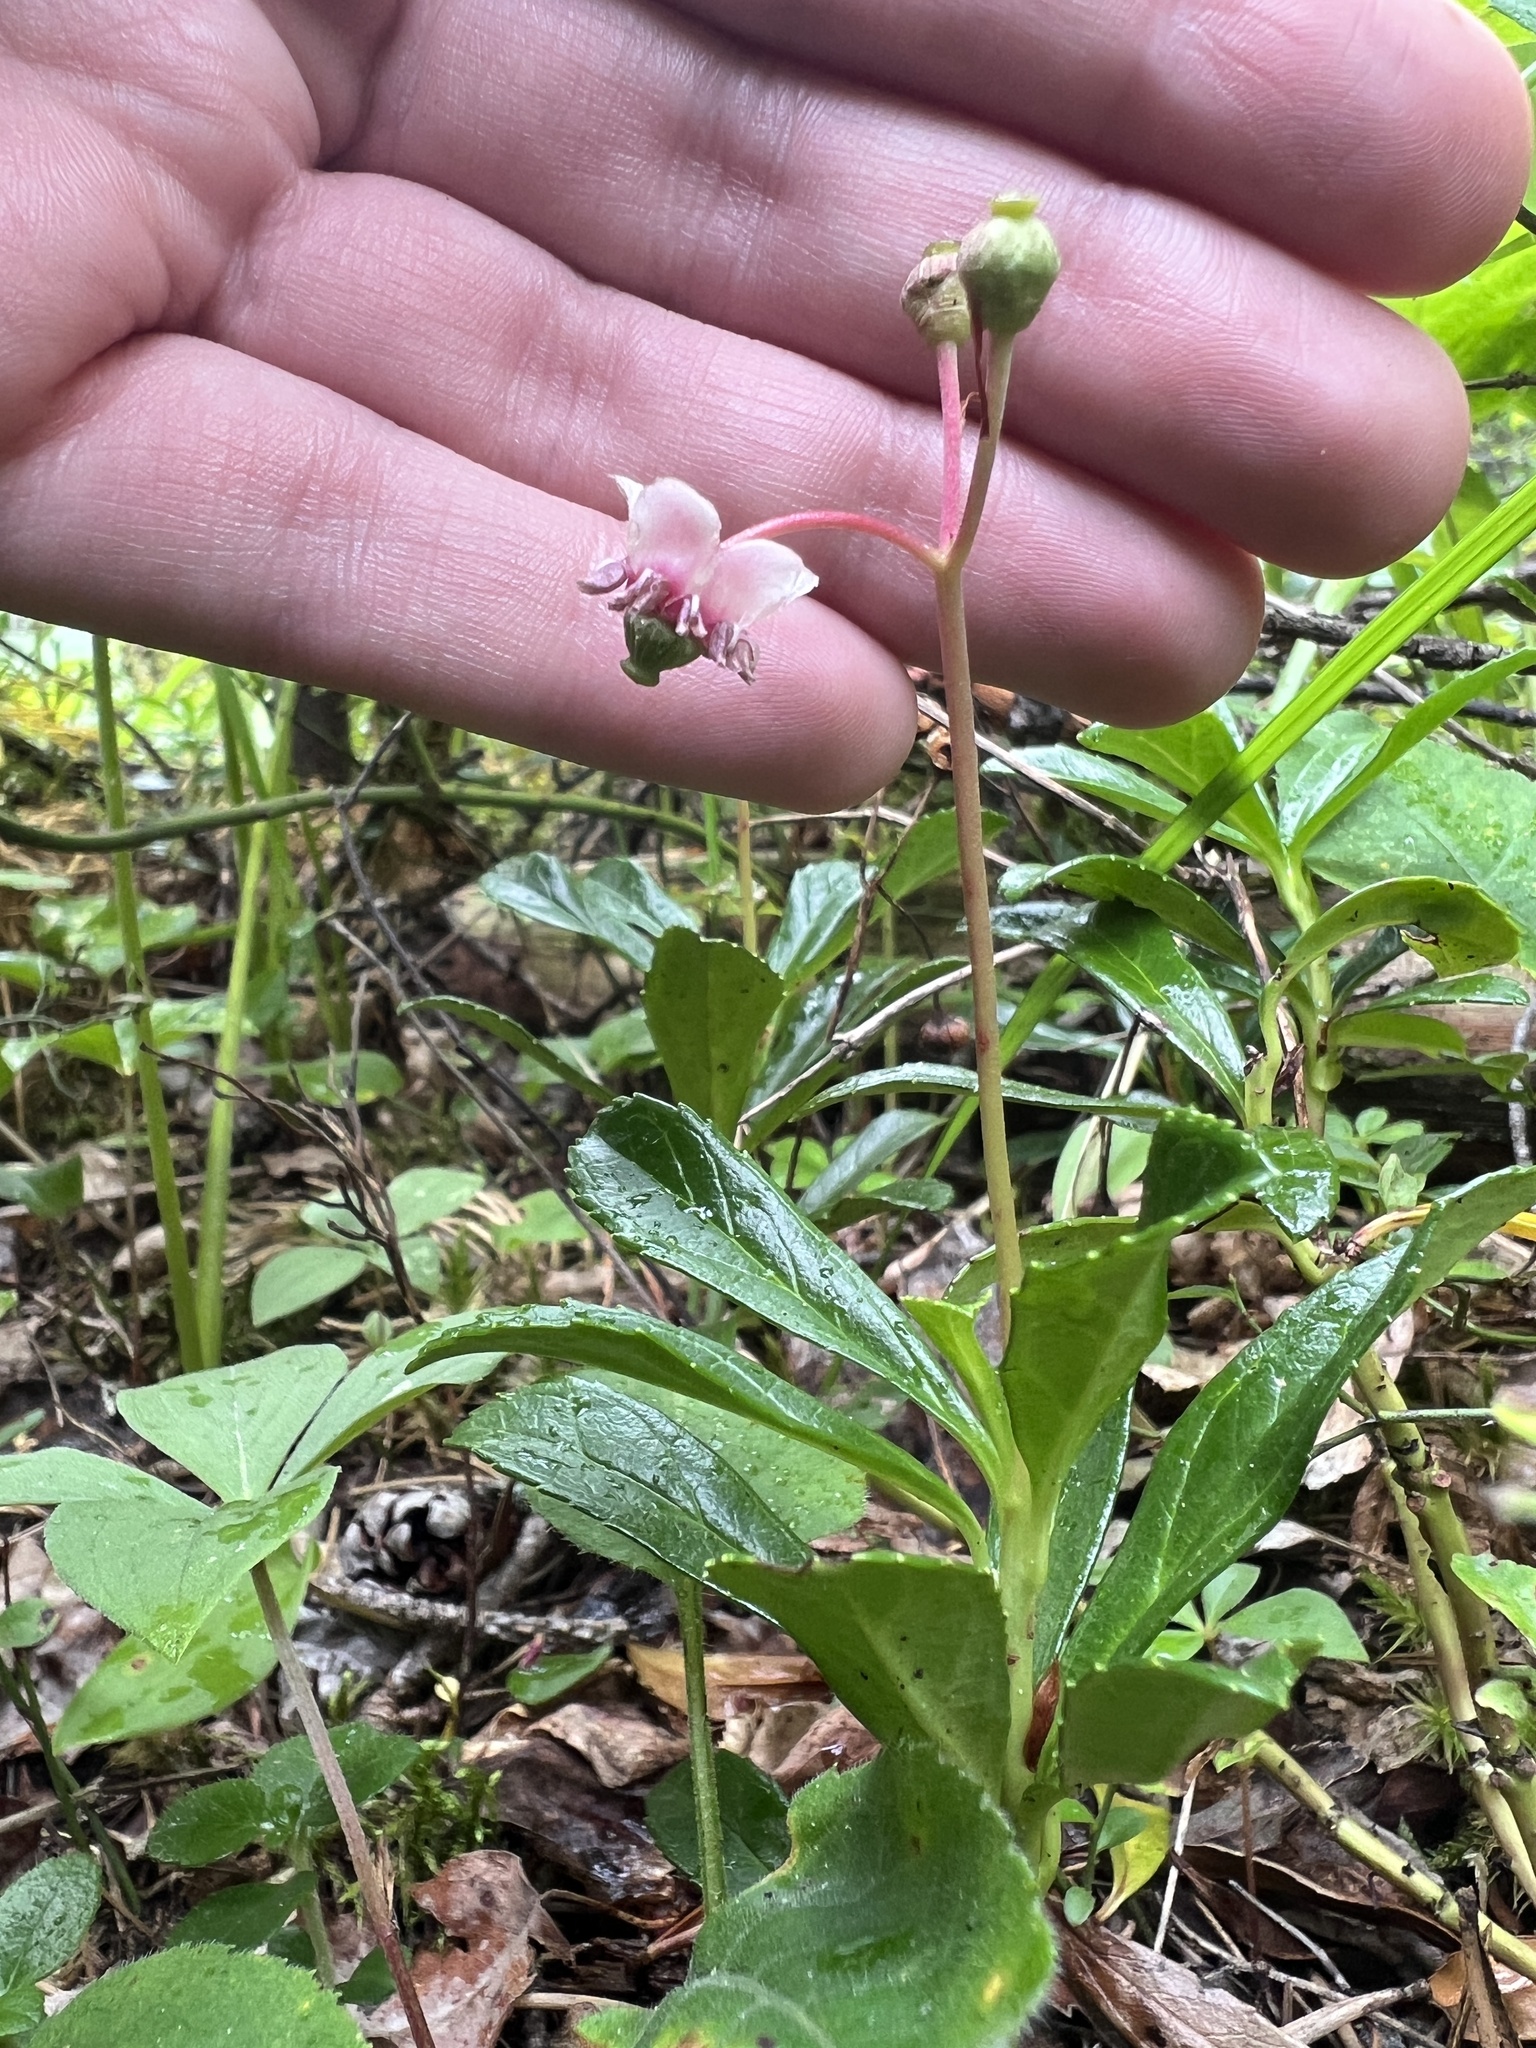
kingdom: Plantae
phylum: Tracheophyta
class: Magnoliopsida
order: Ericales
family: Ericaceae
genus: Chimaphila
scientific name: Chimaphila umbellata
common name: Pipsissewa
